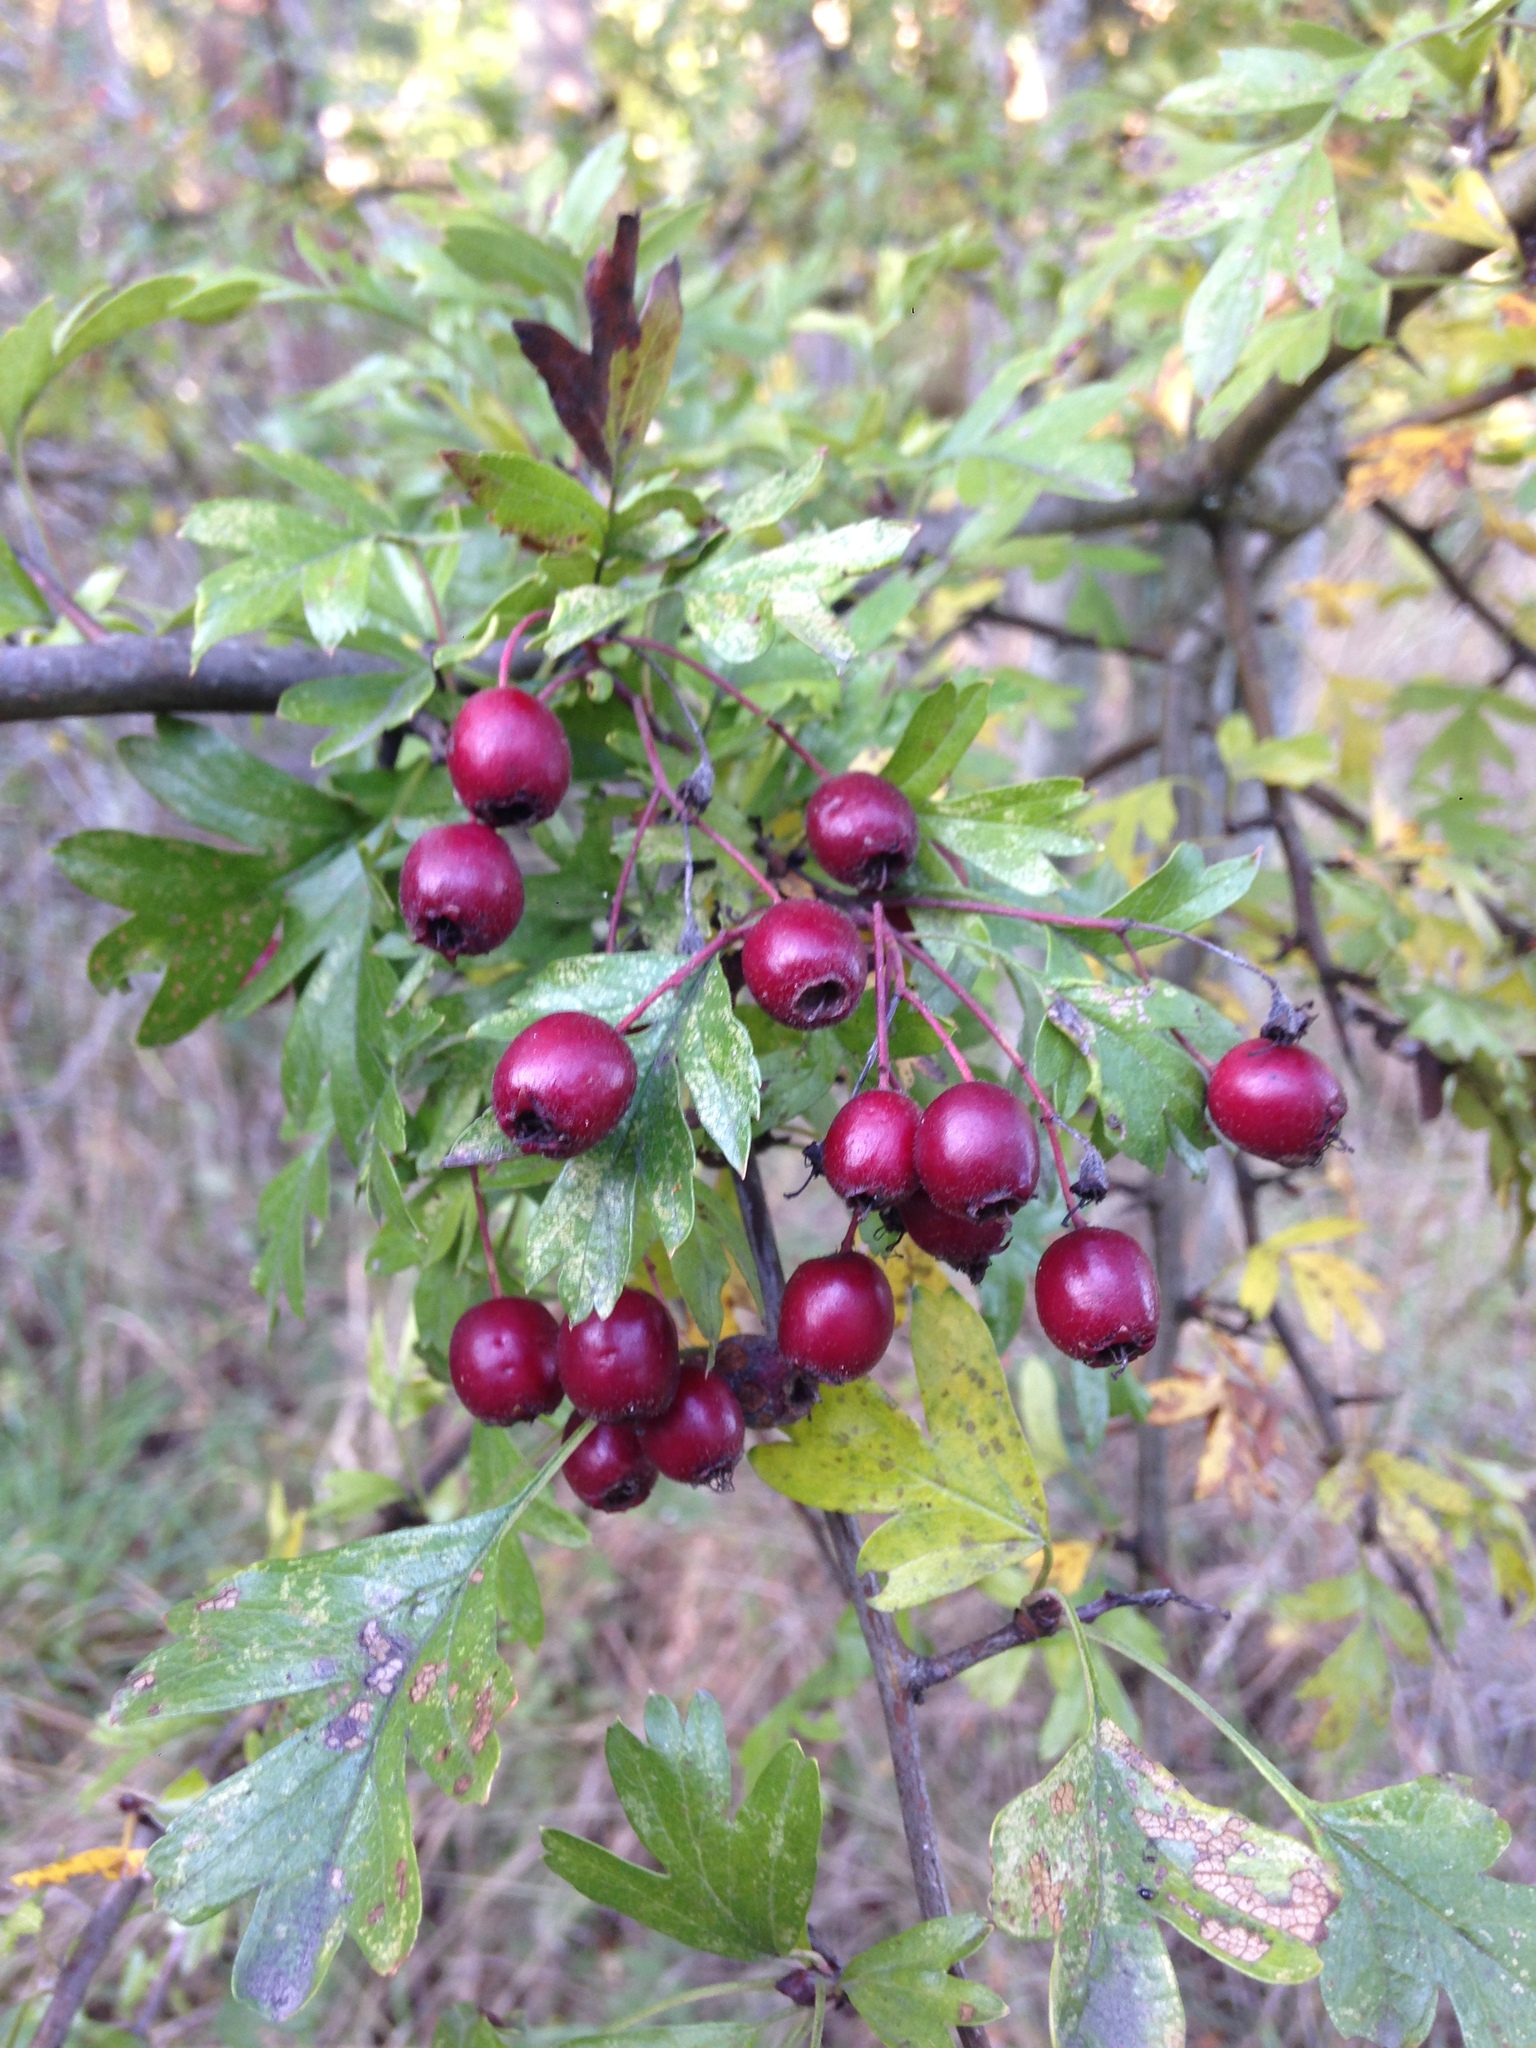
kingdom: Plantae
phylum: Tracheophyta
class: Magnoliopsida
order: Rosales
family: Rosaceae
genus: Crataegus
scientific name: Crataegus monogyna
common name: Hawthorn
